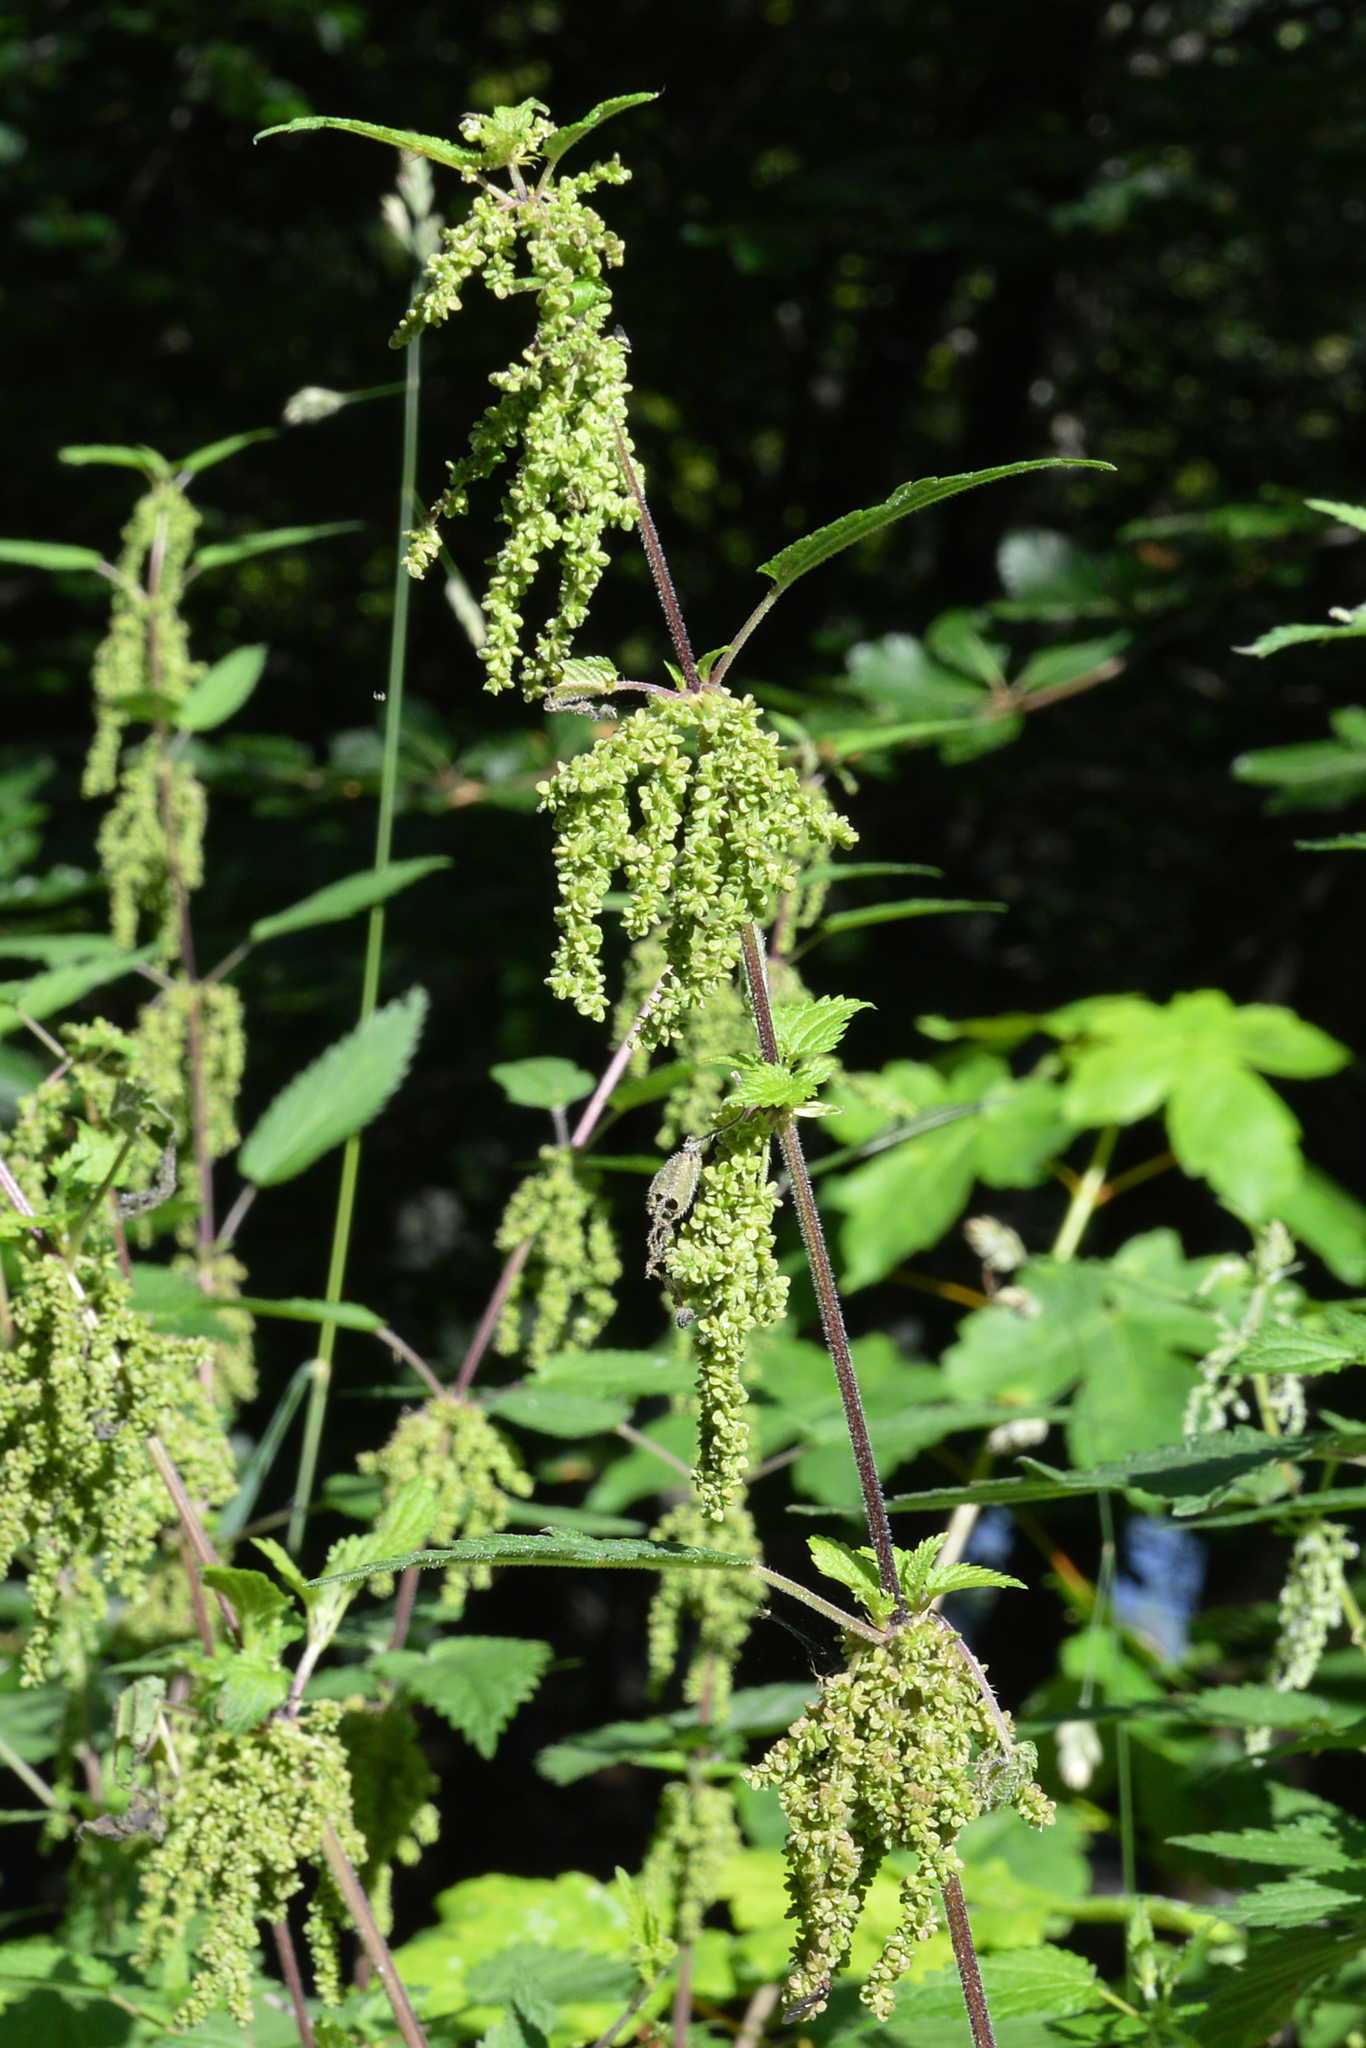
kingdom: Plantae
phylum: Tracheophyta
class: Magnoliopsida
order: Rosales
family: Urticaceae
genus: Urtica
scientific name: Urtica dioica
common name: Common nettle
